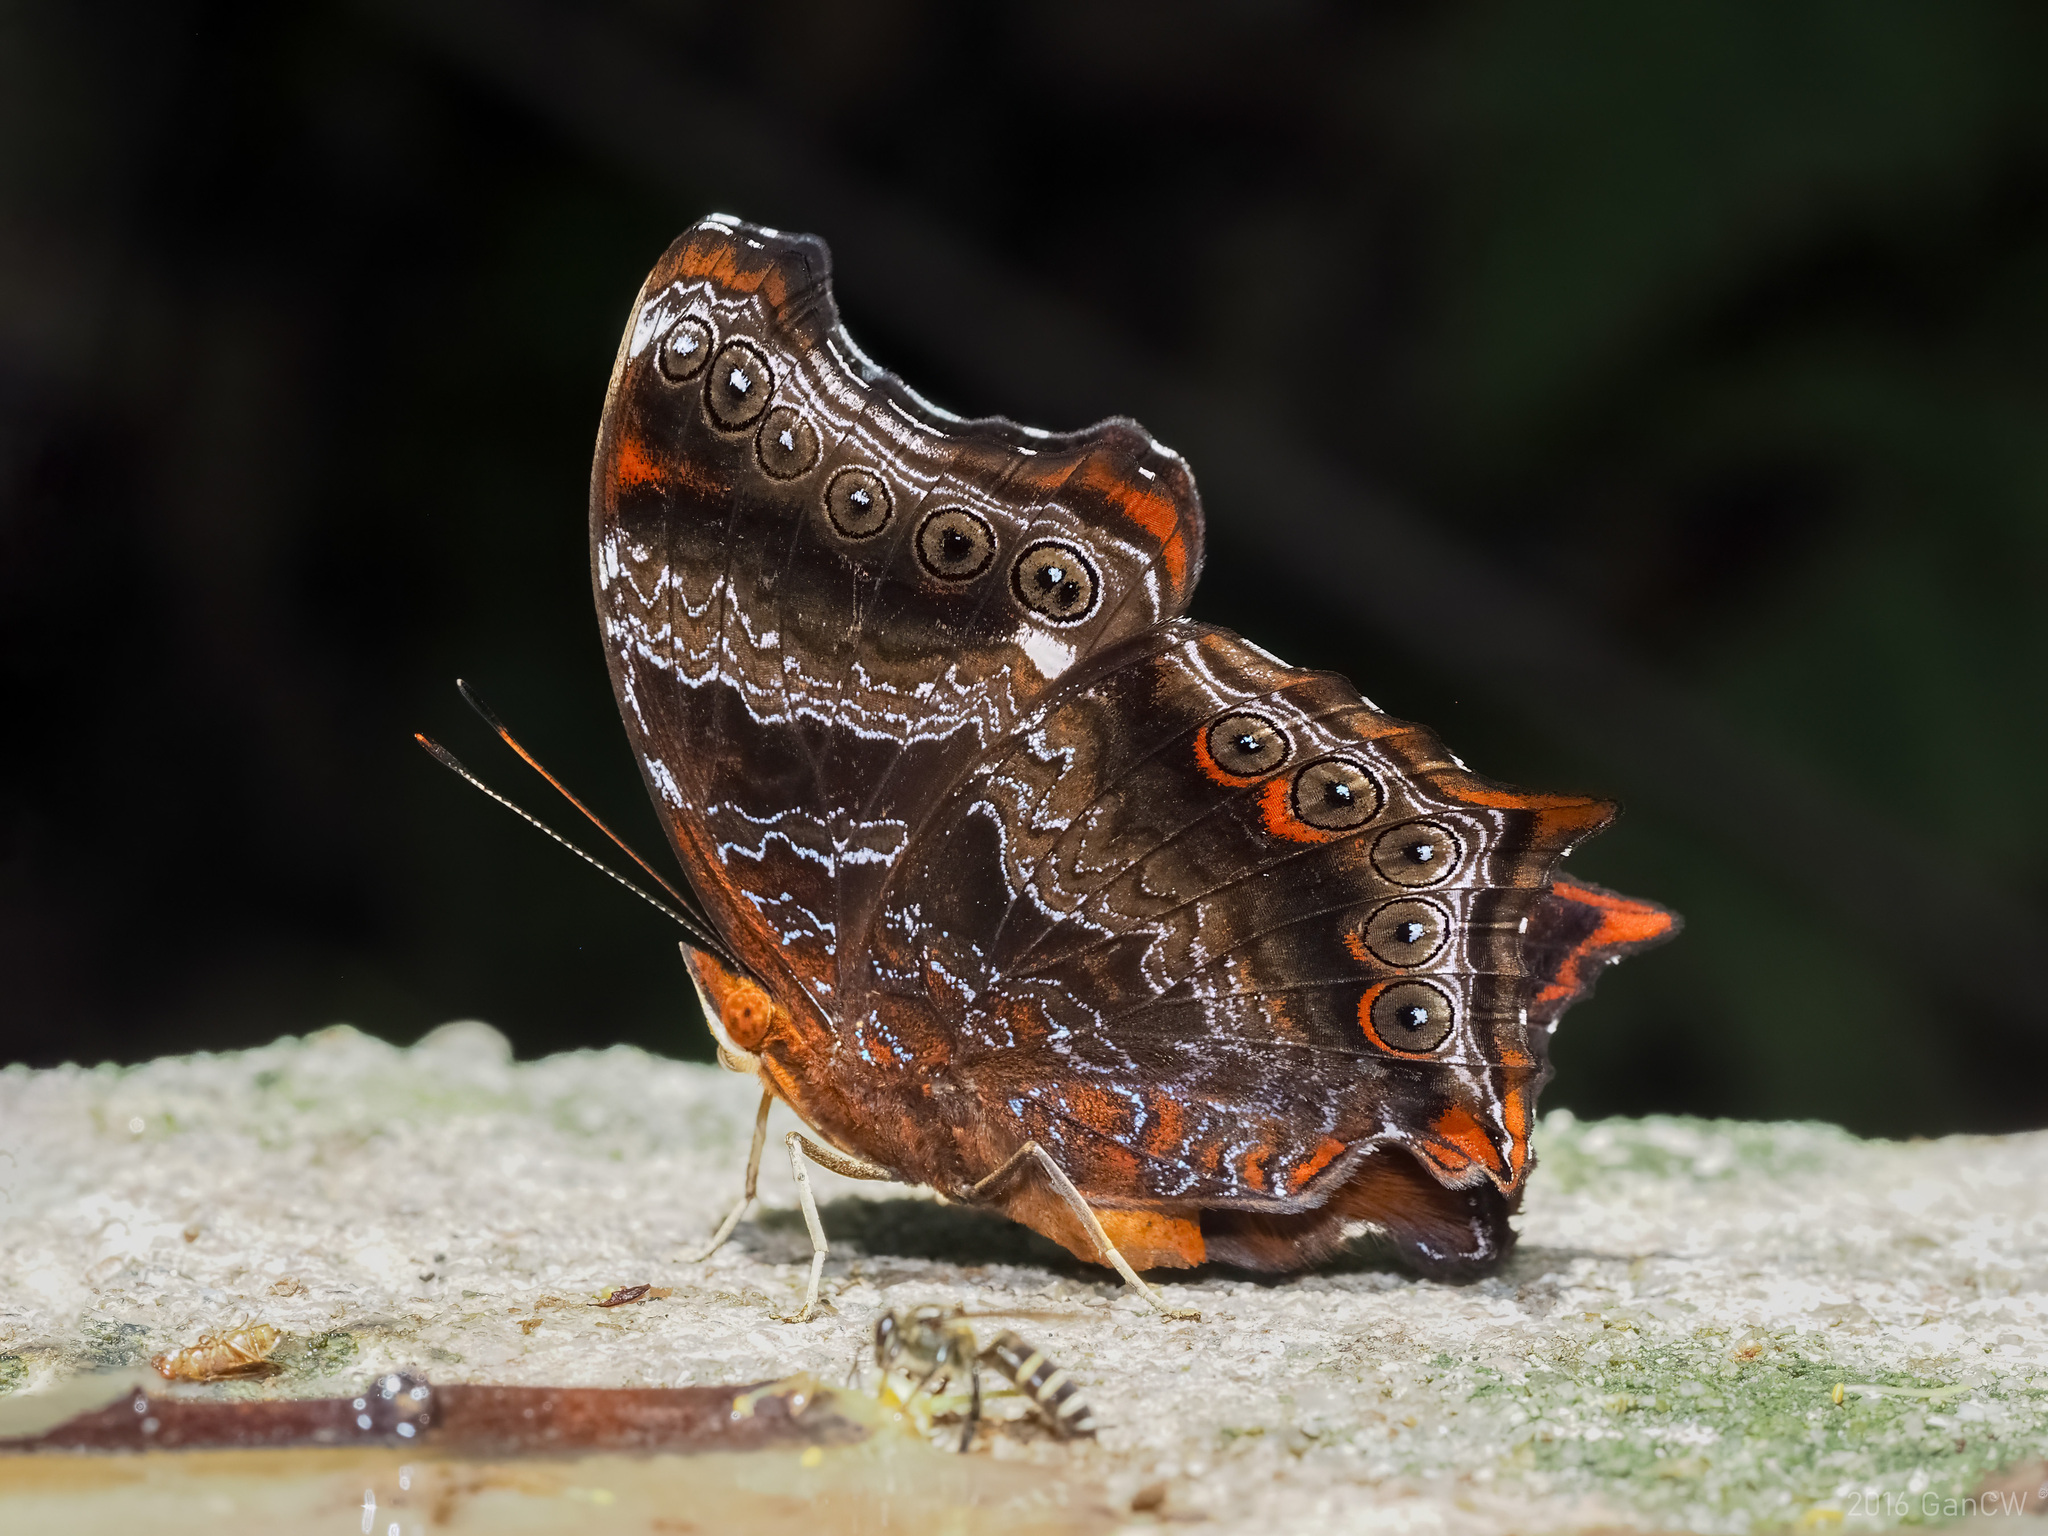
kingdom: Animalia
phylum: Arthropoda
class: Insecta
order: Lepidoptera
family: Nymphalidae
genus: Rhinopalpa
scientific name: Rhinopalpa polynice
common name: Wizard
